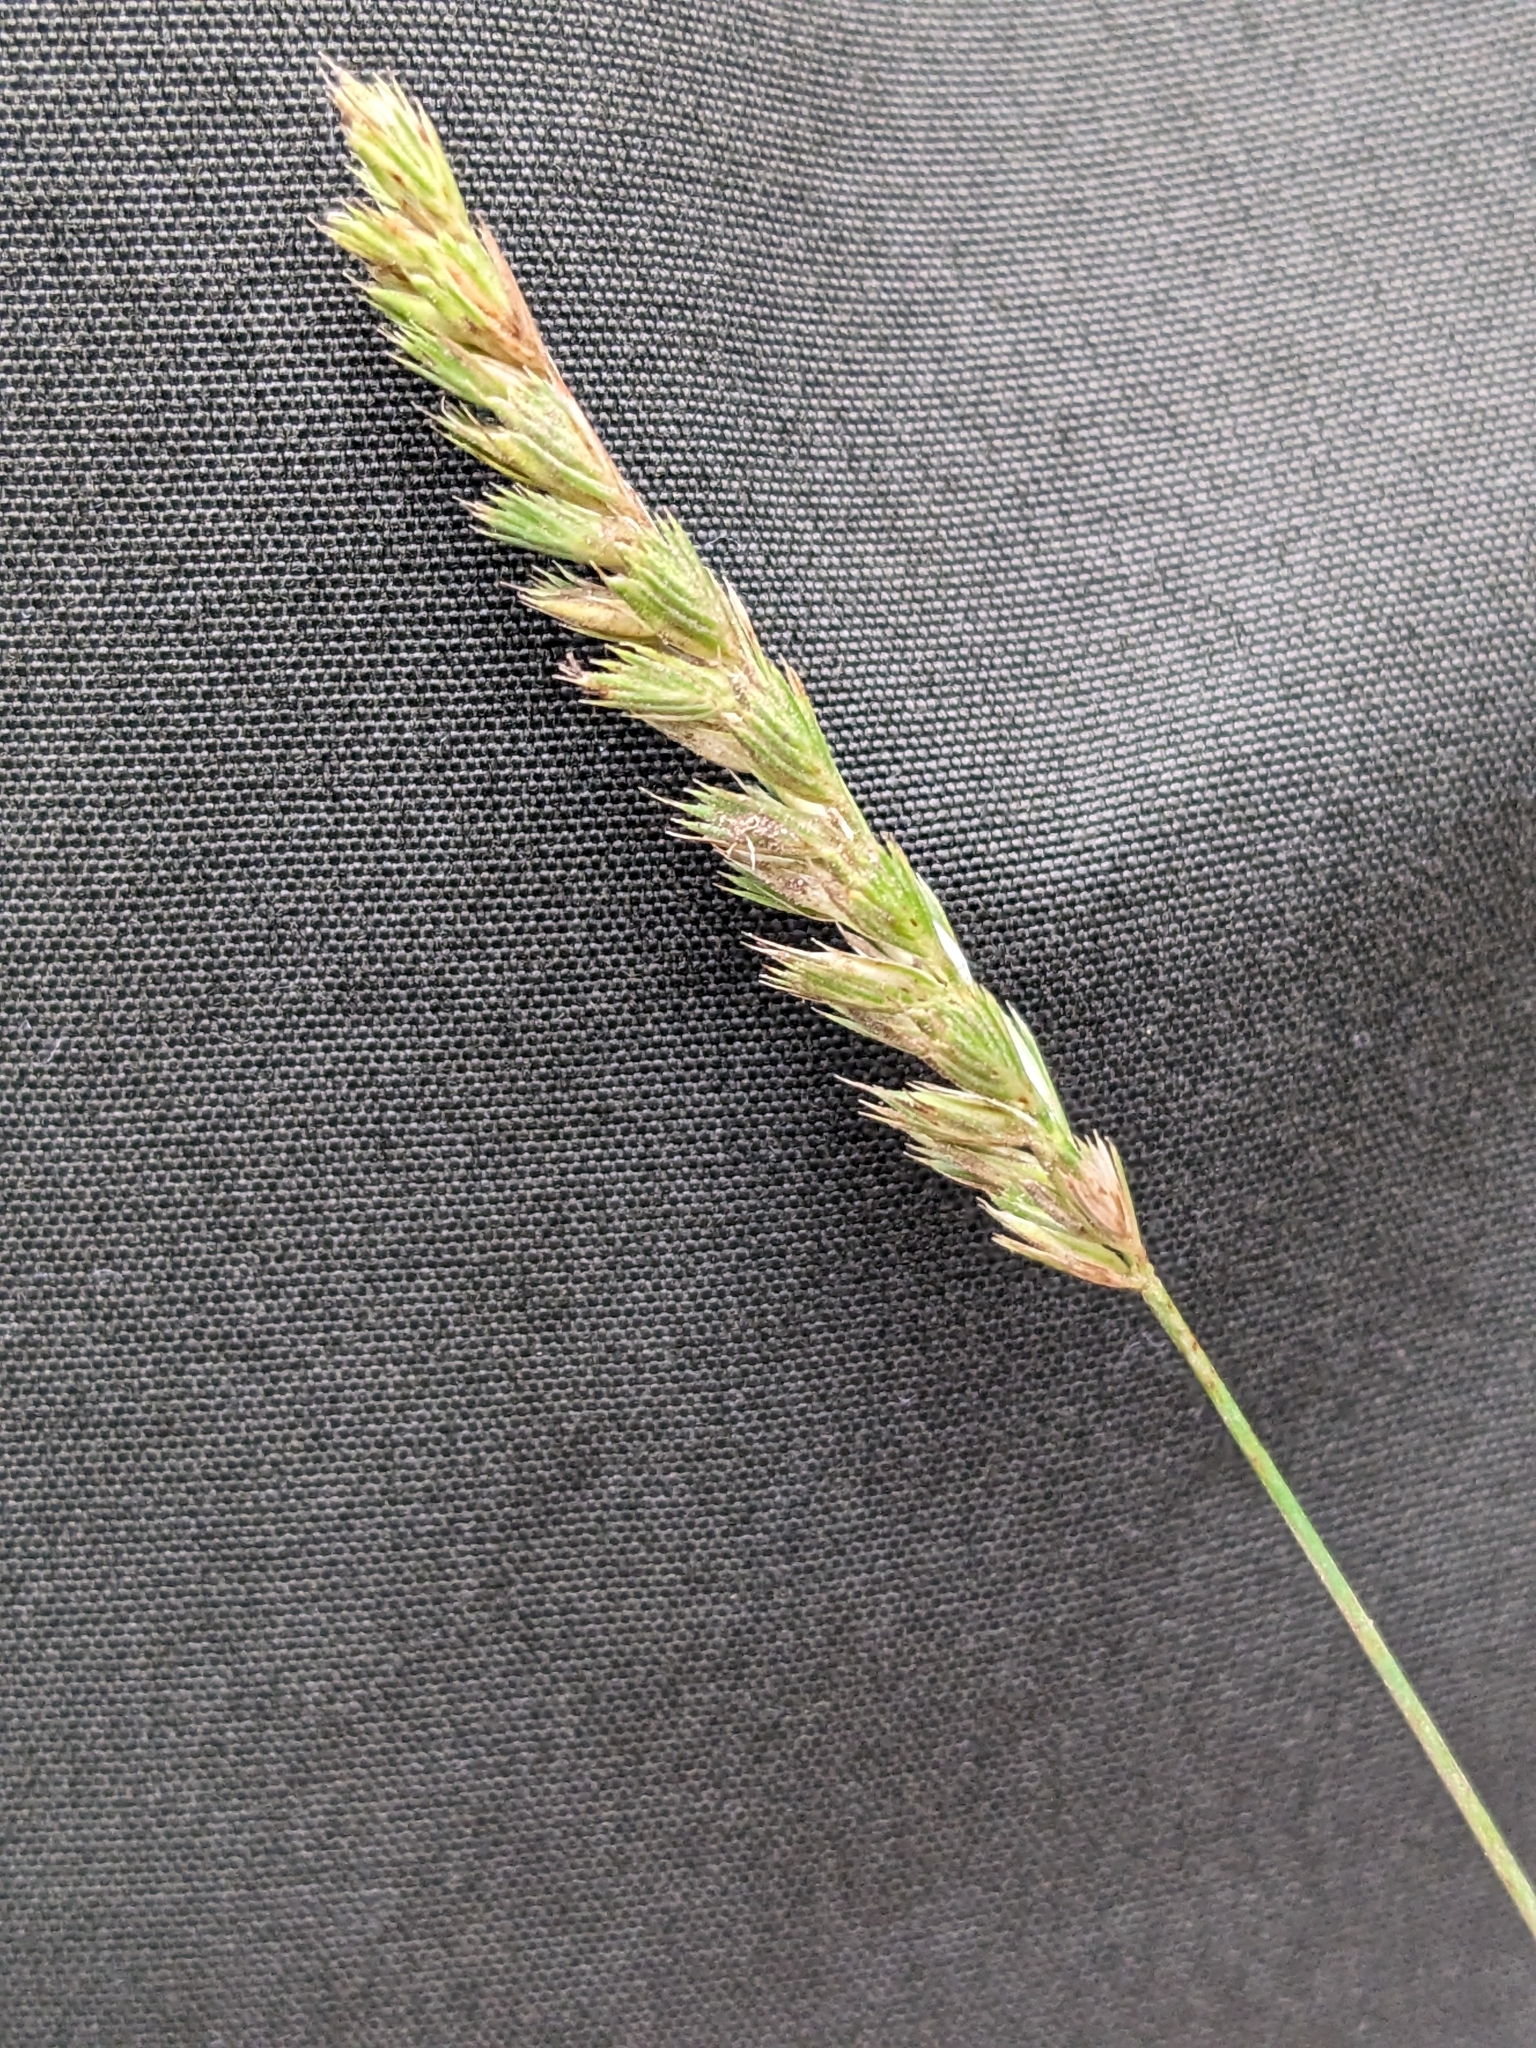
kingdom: Plantae
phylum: Tracheophyta
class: Liliopsida
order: Poales
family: Poaceae
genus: Cynosurus
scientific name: Cynosurus cristatus
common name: Crested dog's-tail
